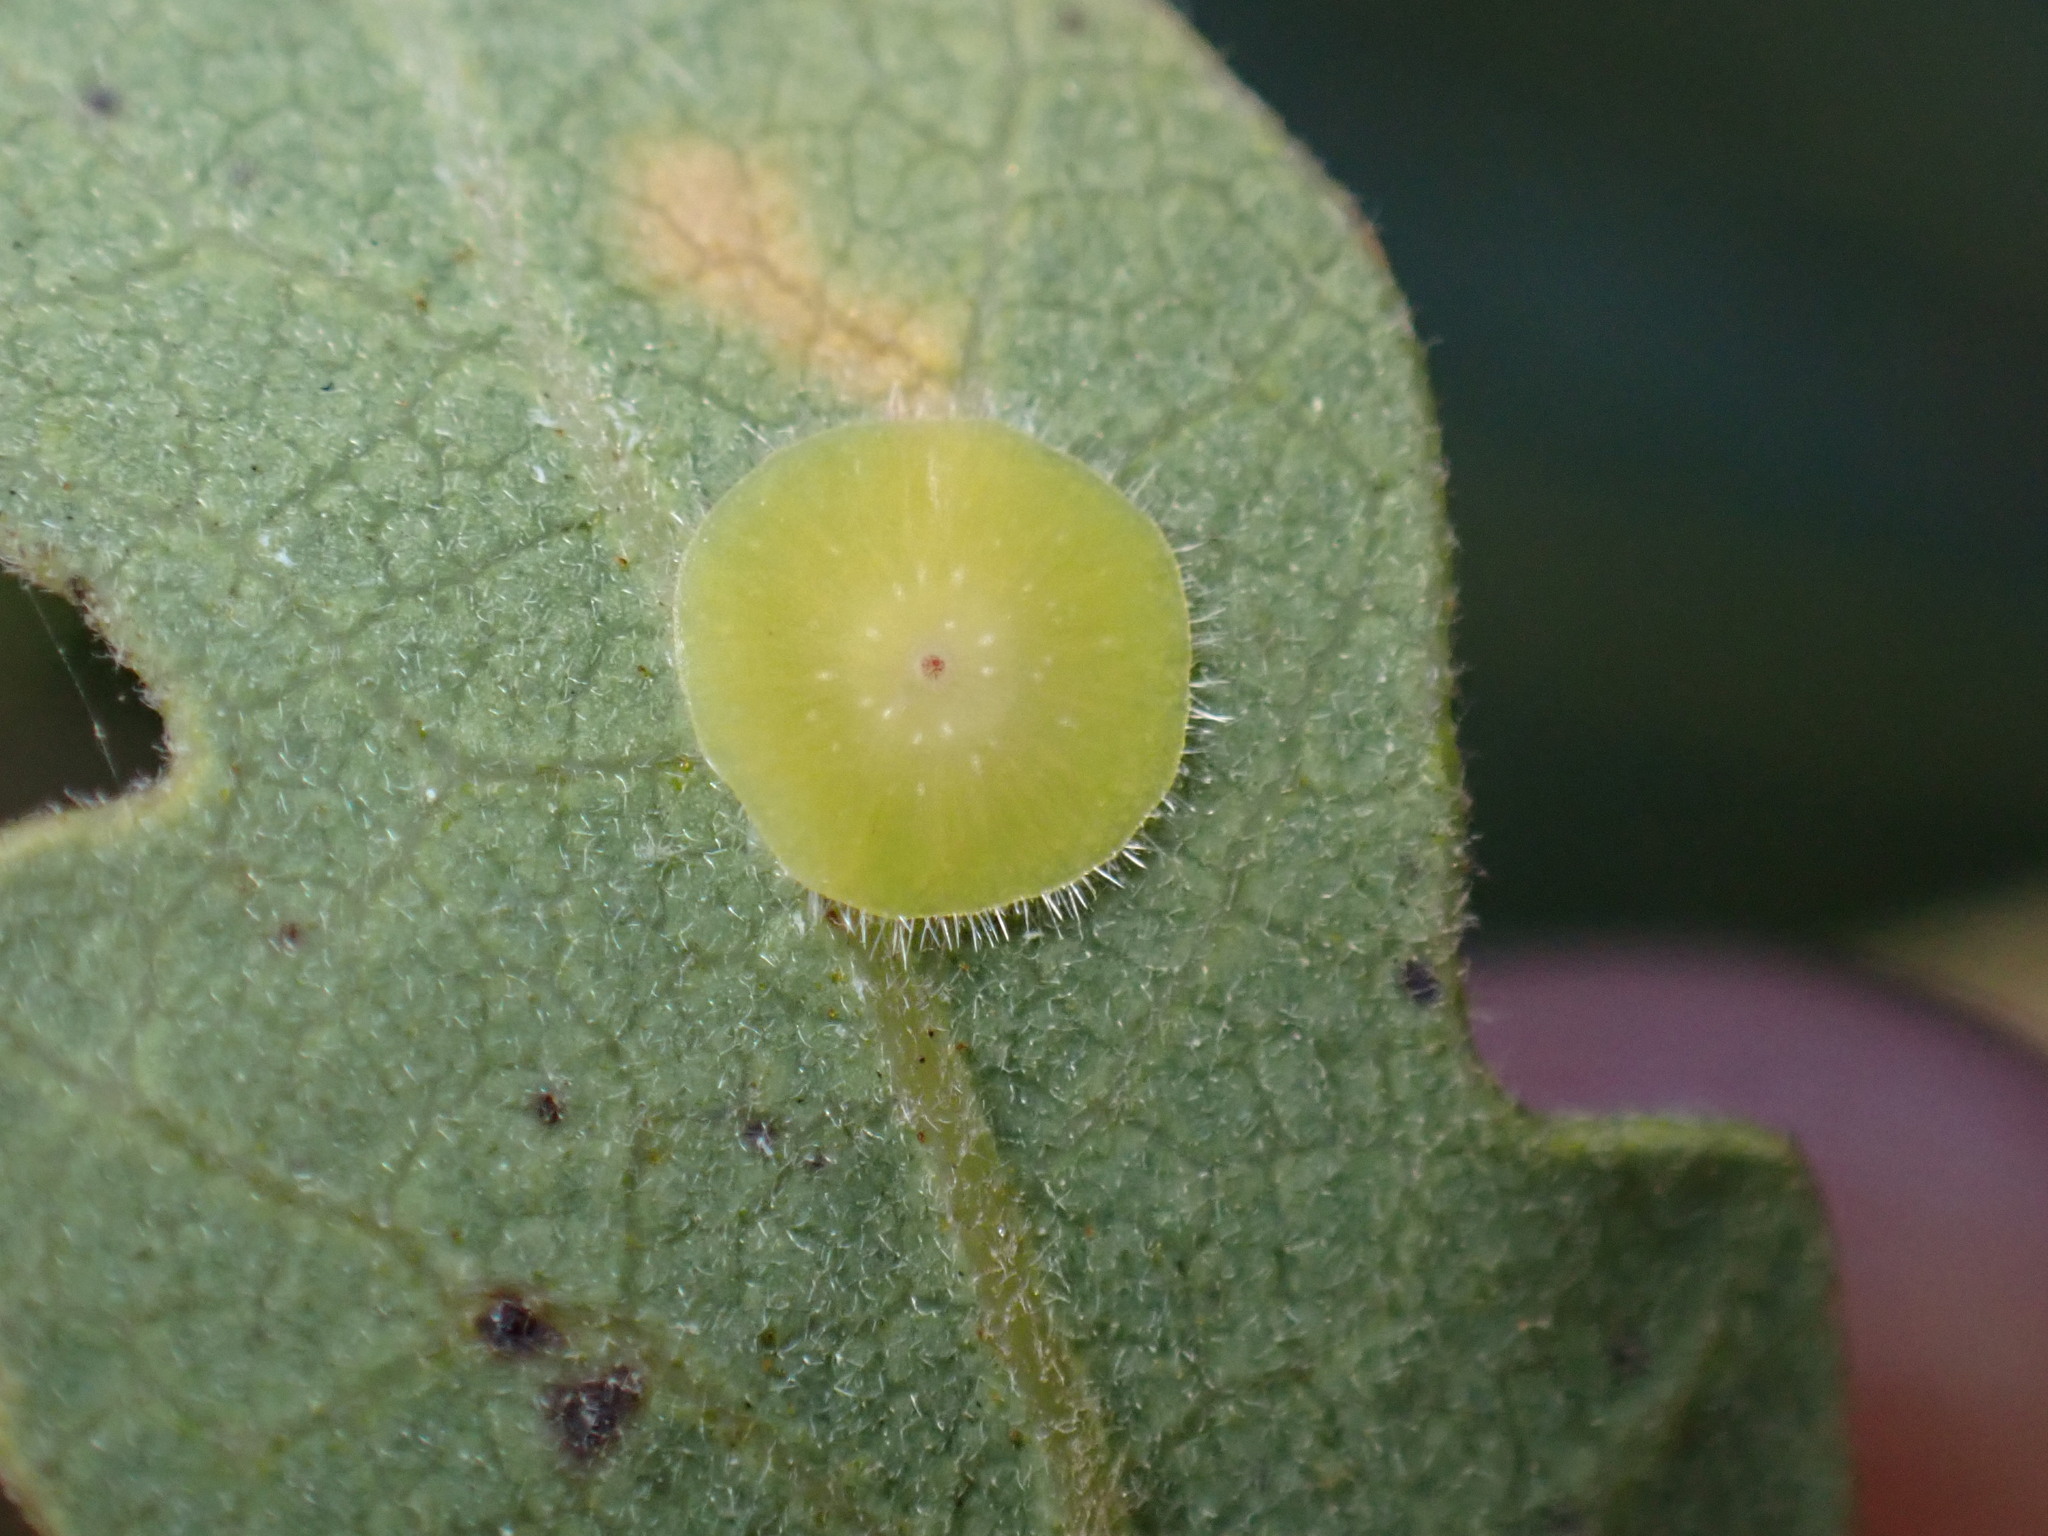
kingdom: Animalia
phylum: Arthropoda
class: Insecta
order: Hymenoptera
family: Cynipidae
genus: Andricus
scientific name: Andricus
